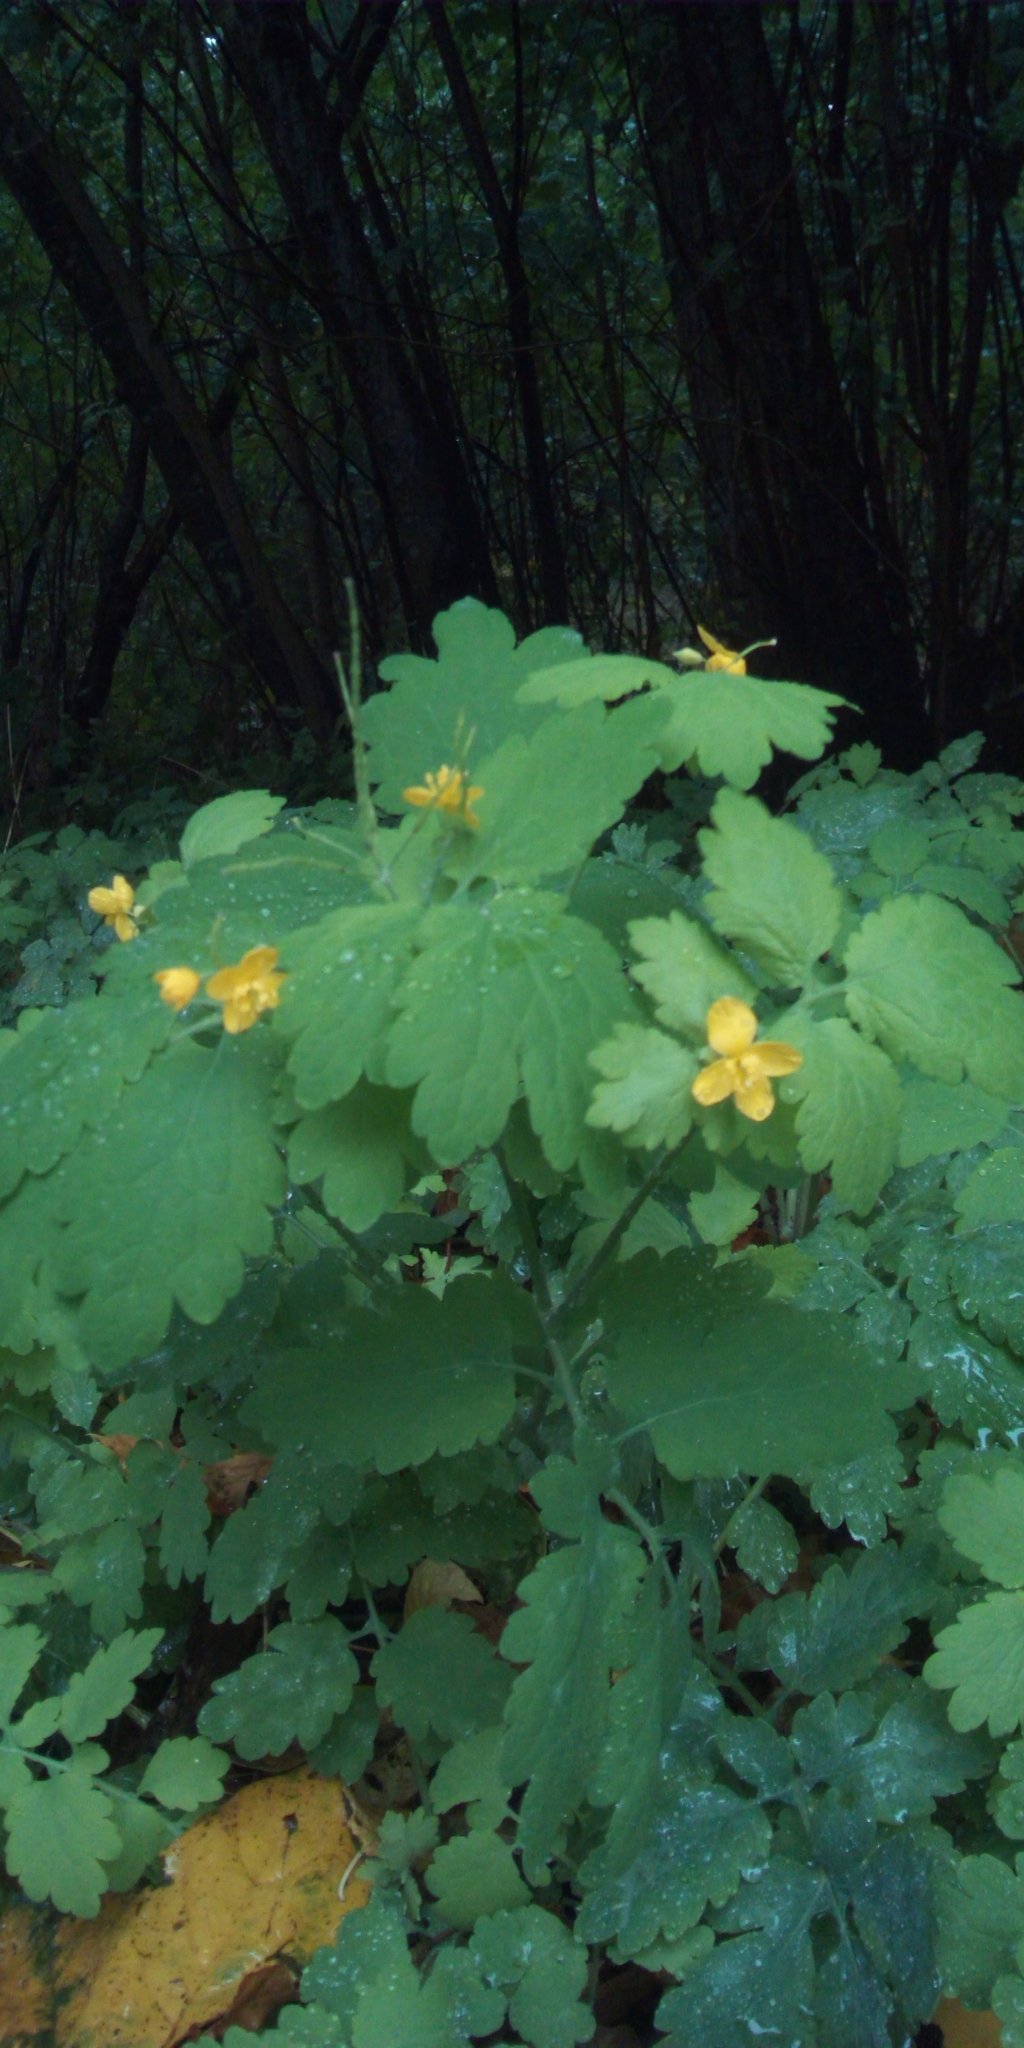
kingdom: Plantae
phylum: Tracheophyta
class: Magnoliopsida
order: Ranunculales
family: Papaveraceae
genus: Chelidonium
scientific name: Chelidonium majus
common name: Greater celandine
